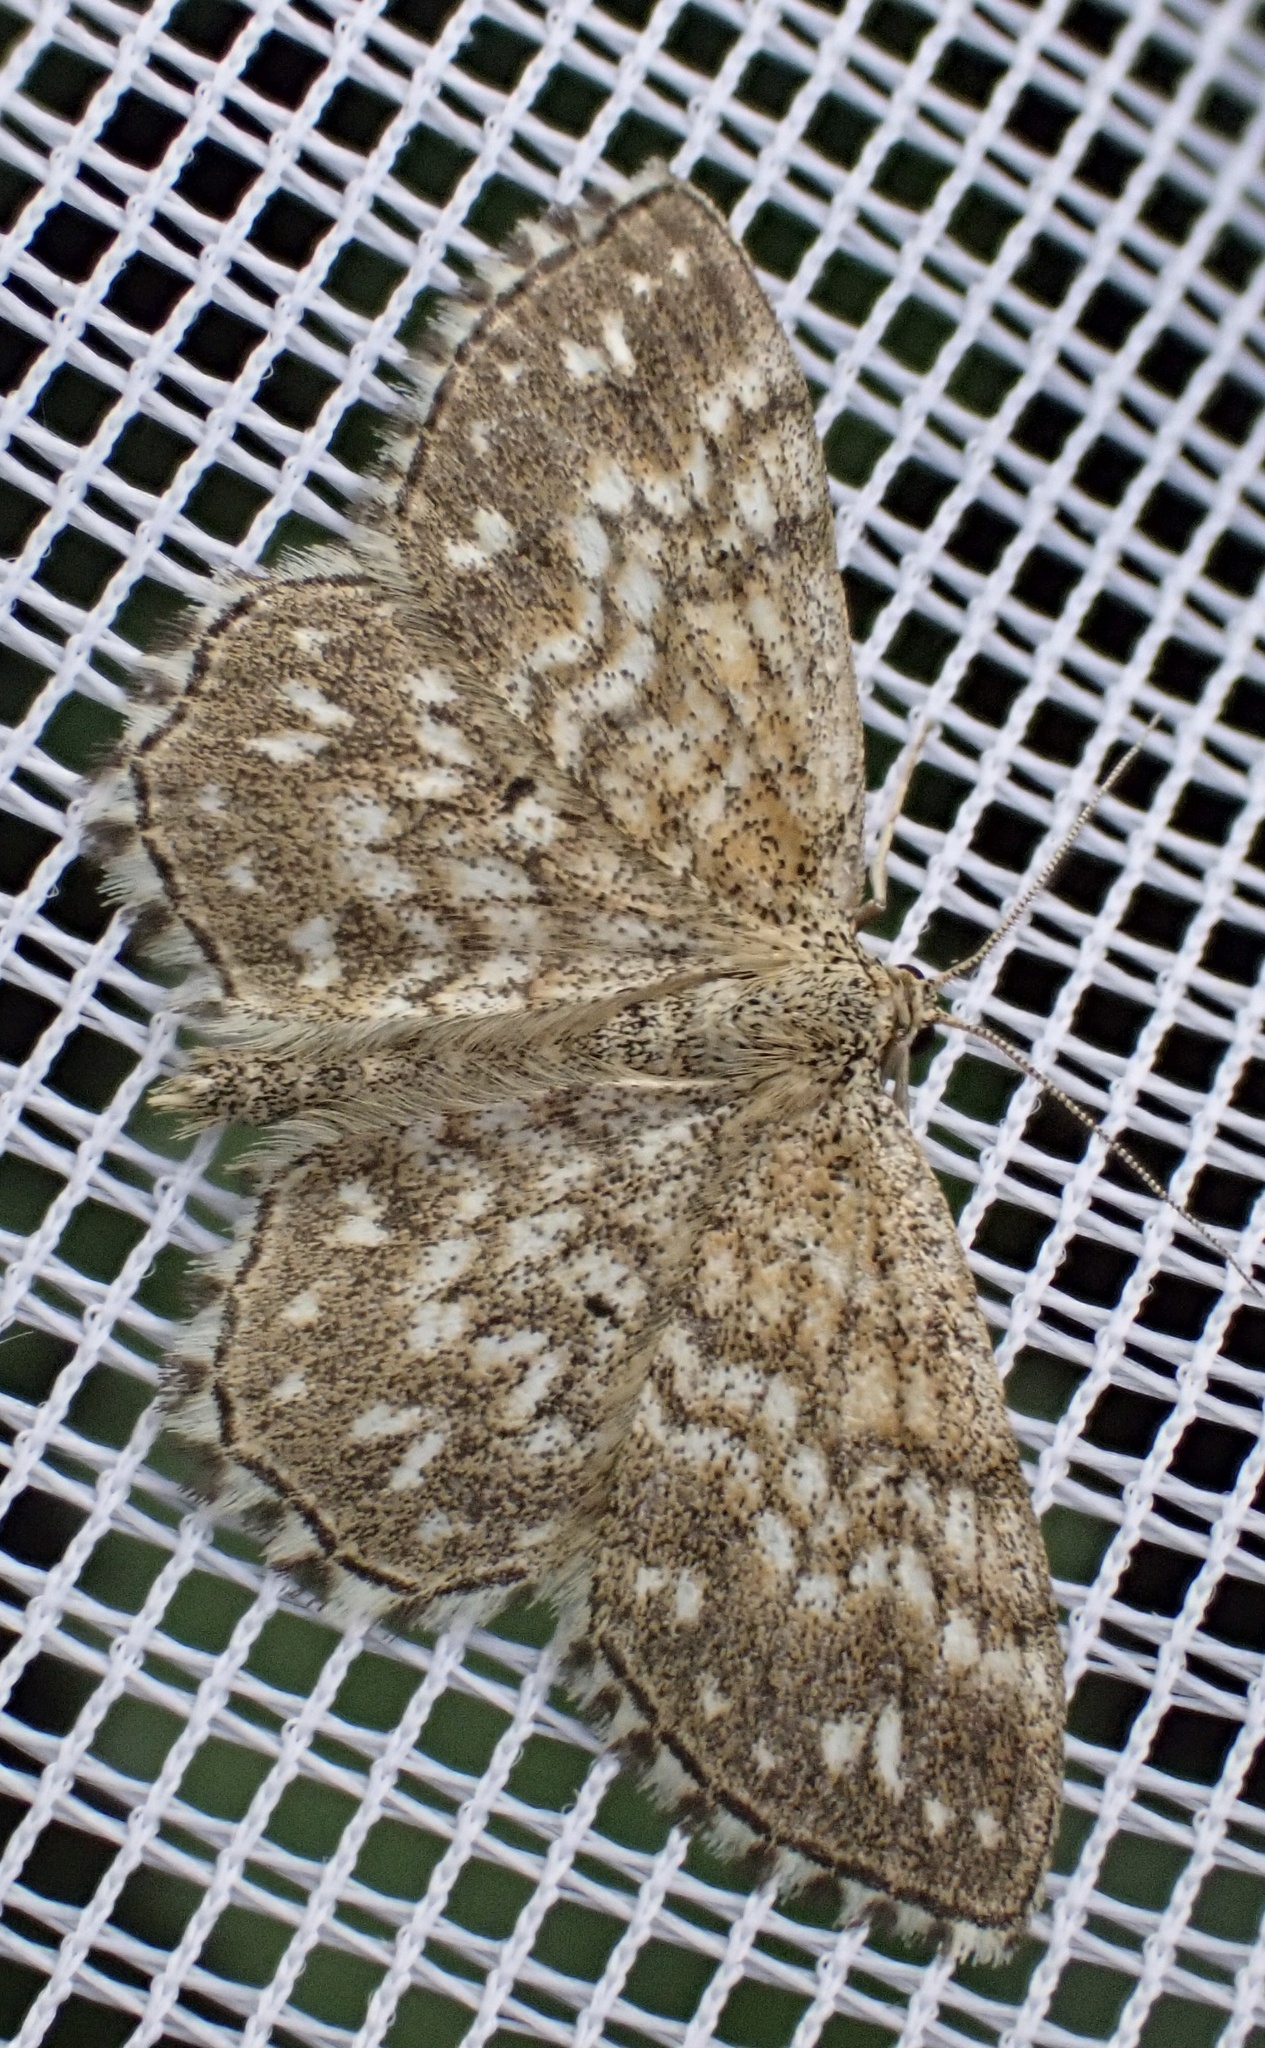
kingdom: Animalia
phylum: Arthropoda
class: Insecta
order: Lepidoptera
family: Geometridae
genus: Scopula
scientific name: Scopula tessellaria
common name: Dusky-brown wave
